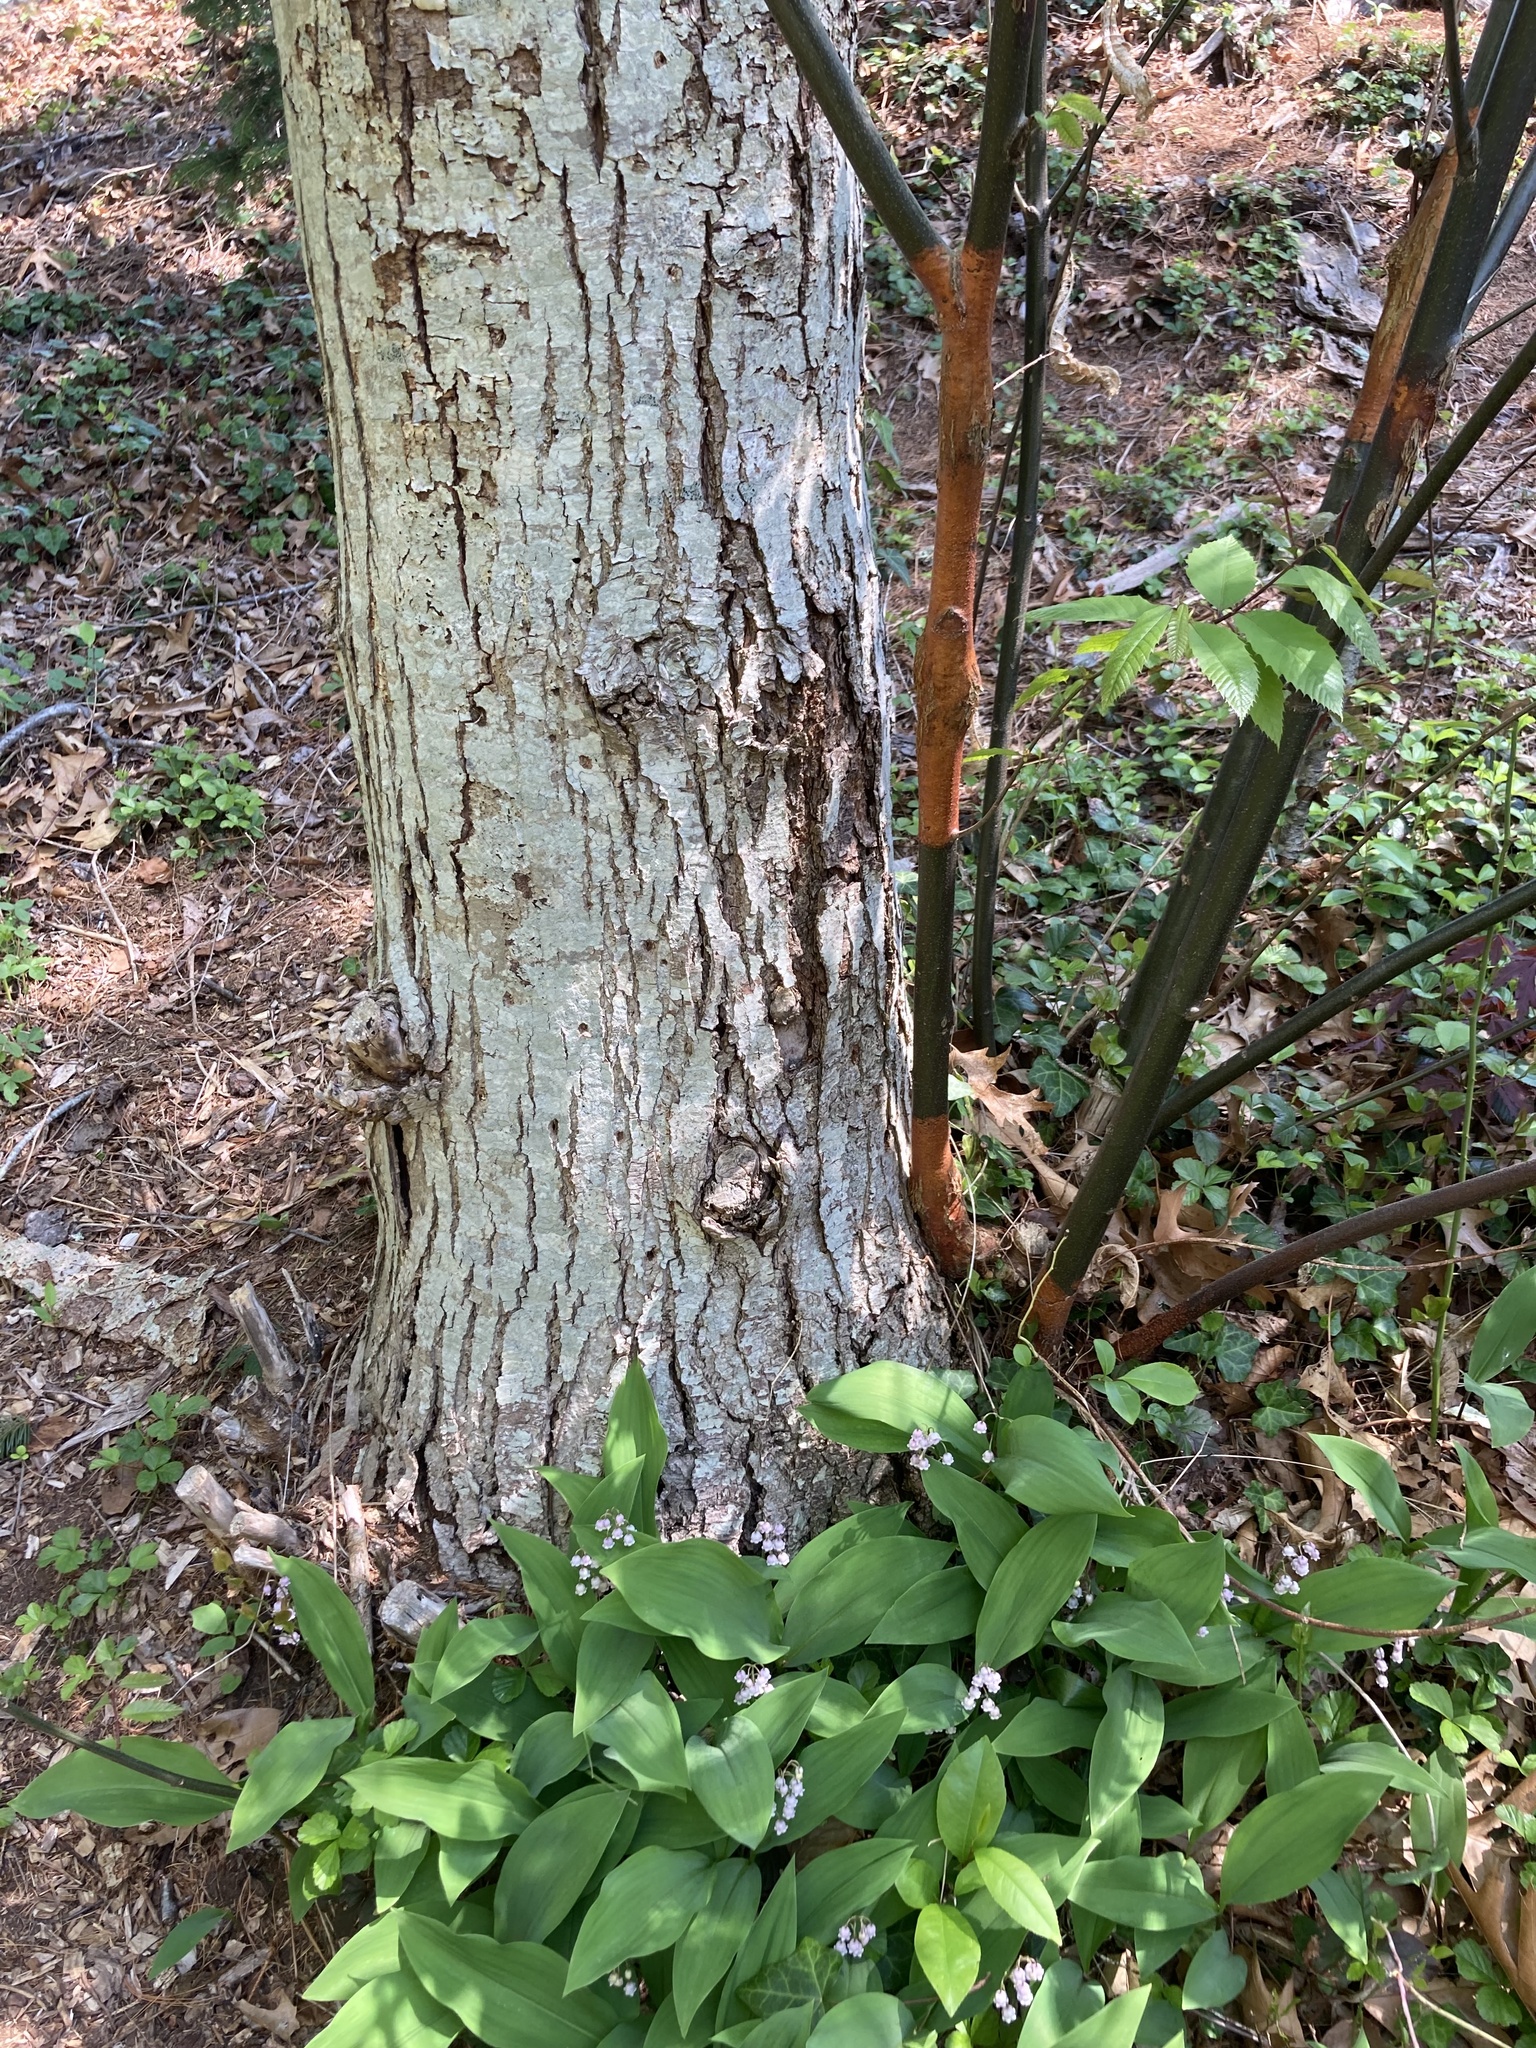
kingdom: Fungi
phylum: Ascomycota
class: Sordariomycetes
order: Diaporthales
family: Cryphonectriaceae
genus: Cryphonectria
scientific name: Cryphonectria parasitica
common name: Chestnut blight
